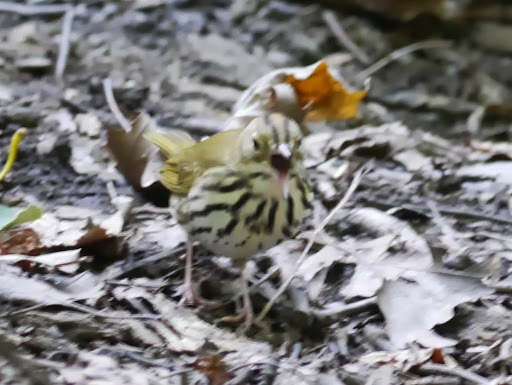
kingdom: Animalia
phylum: Chordata
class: Aves
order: Passeriformes
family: Parulidae
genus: Seiurus
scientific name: Seiurus aurocapilla
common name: Ovenbird
